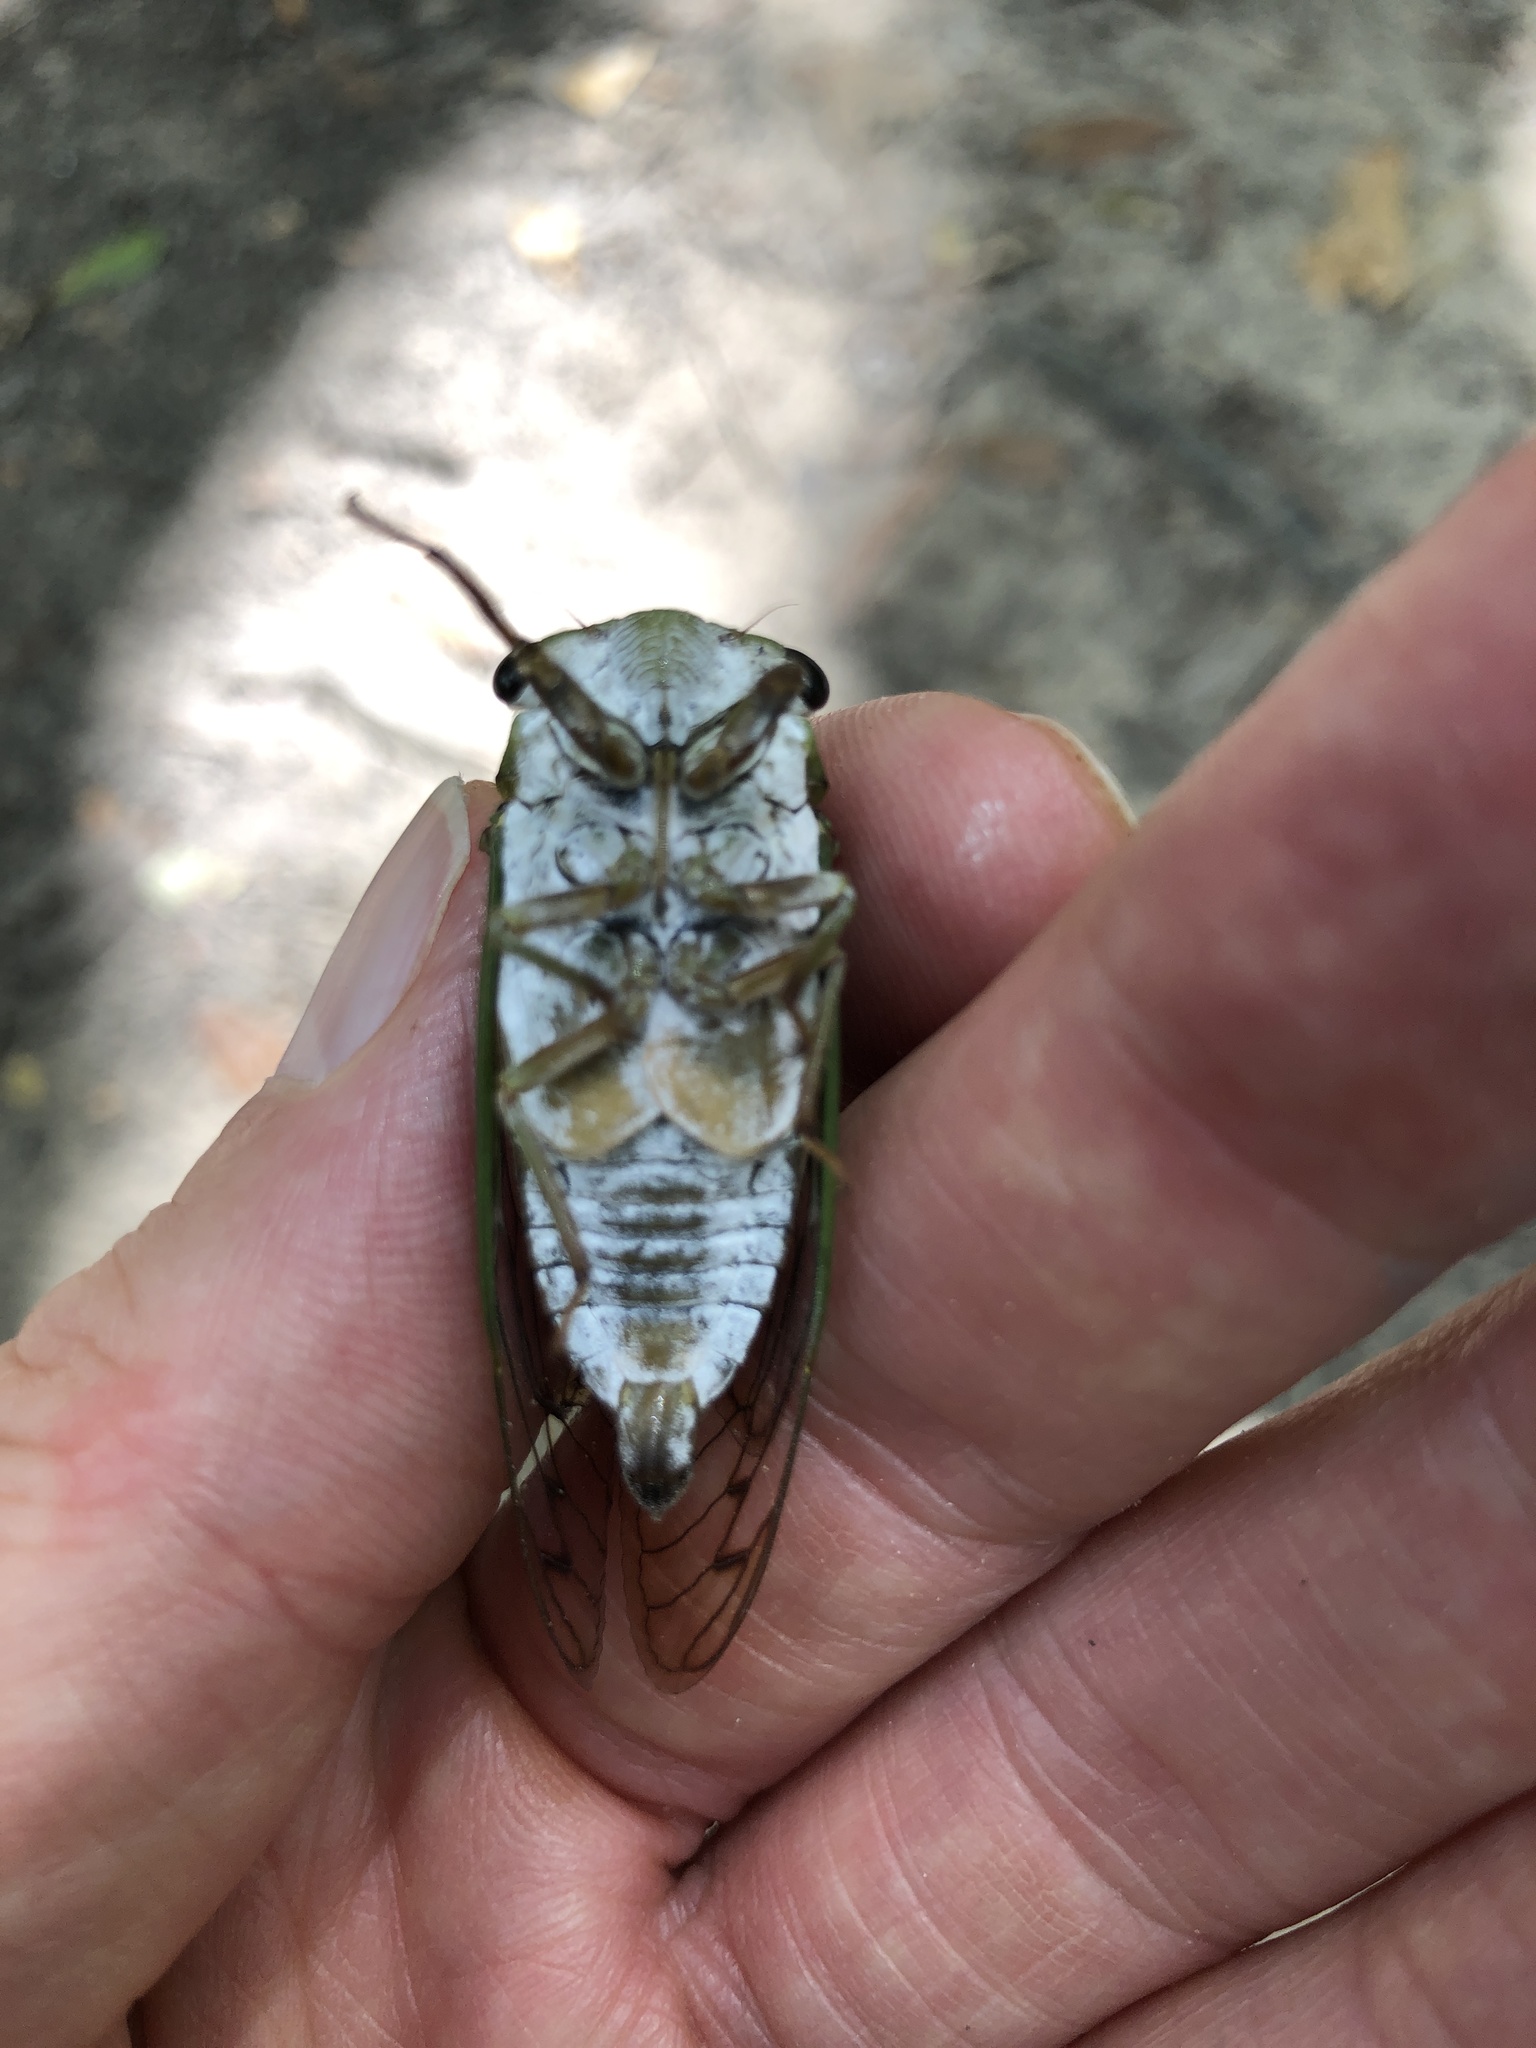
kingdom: Animalia
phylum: Arthropoda
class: Insecta
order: Hemiptera
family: Cicadidae
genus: Neotibicen
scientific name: Neotibicen superbus
